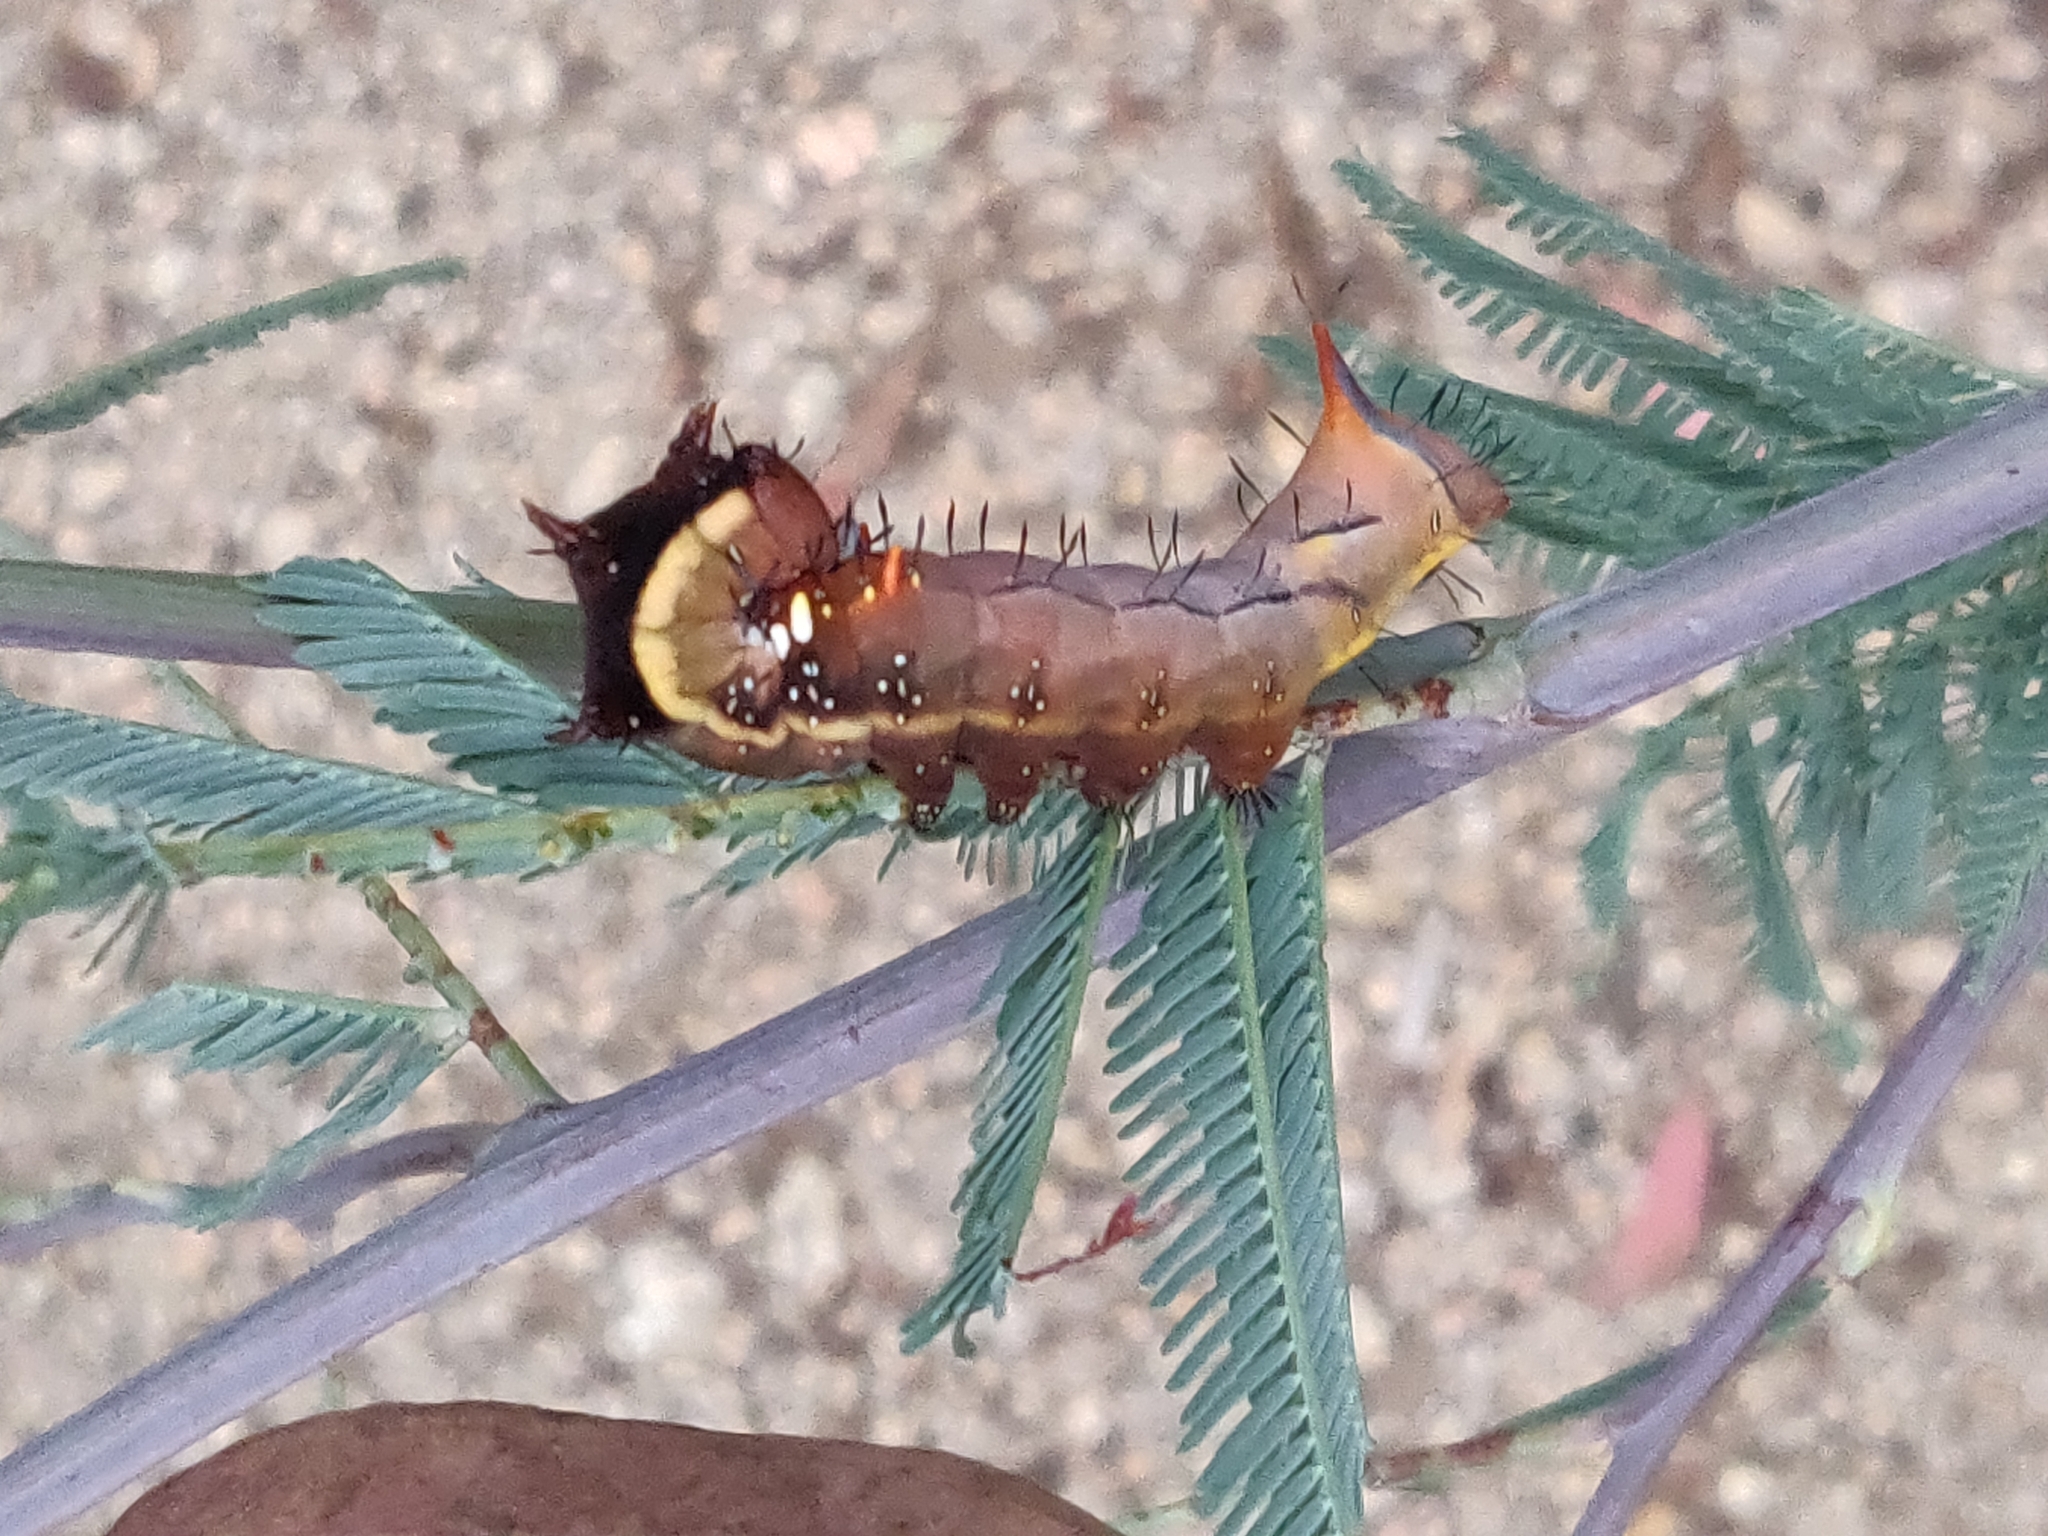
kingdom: Animalia
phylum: Arthropoda
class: Insecta
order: Lepidoptera
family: Notodontidae
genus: Neola
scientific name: Neola semiaurata
